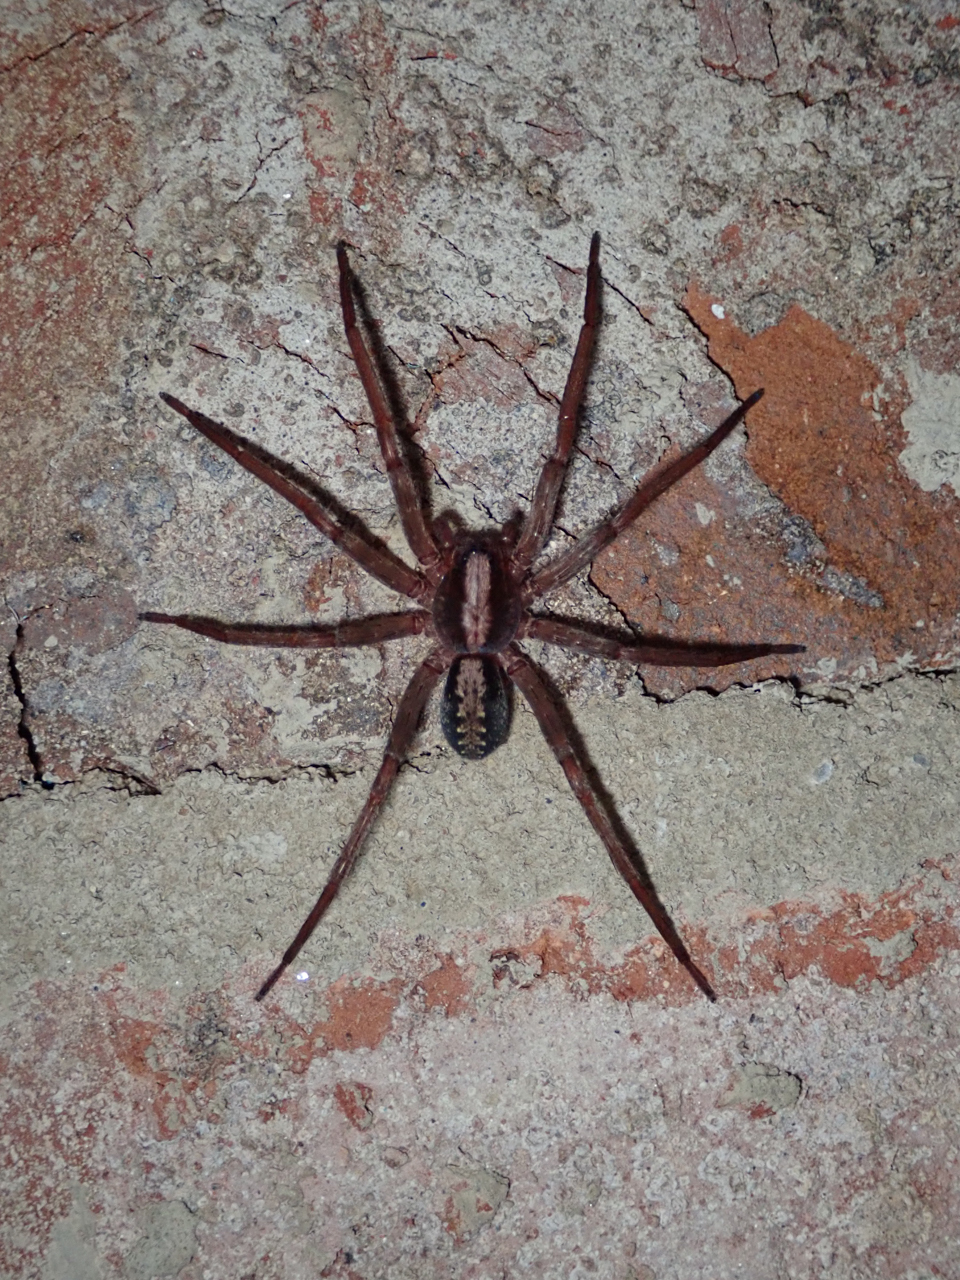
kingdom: Animalia
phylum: Arthropoda
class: Arachnida
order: Araneae
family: Ctenidae
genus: Ctenus
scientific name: Ctenus hibernalis
